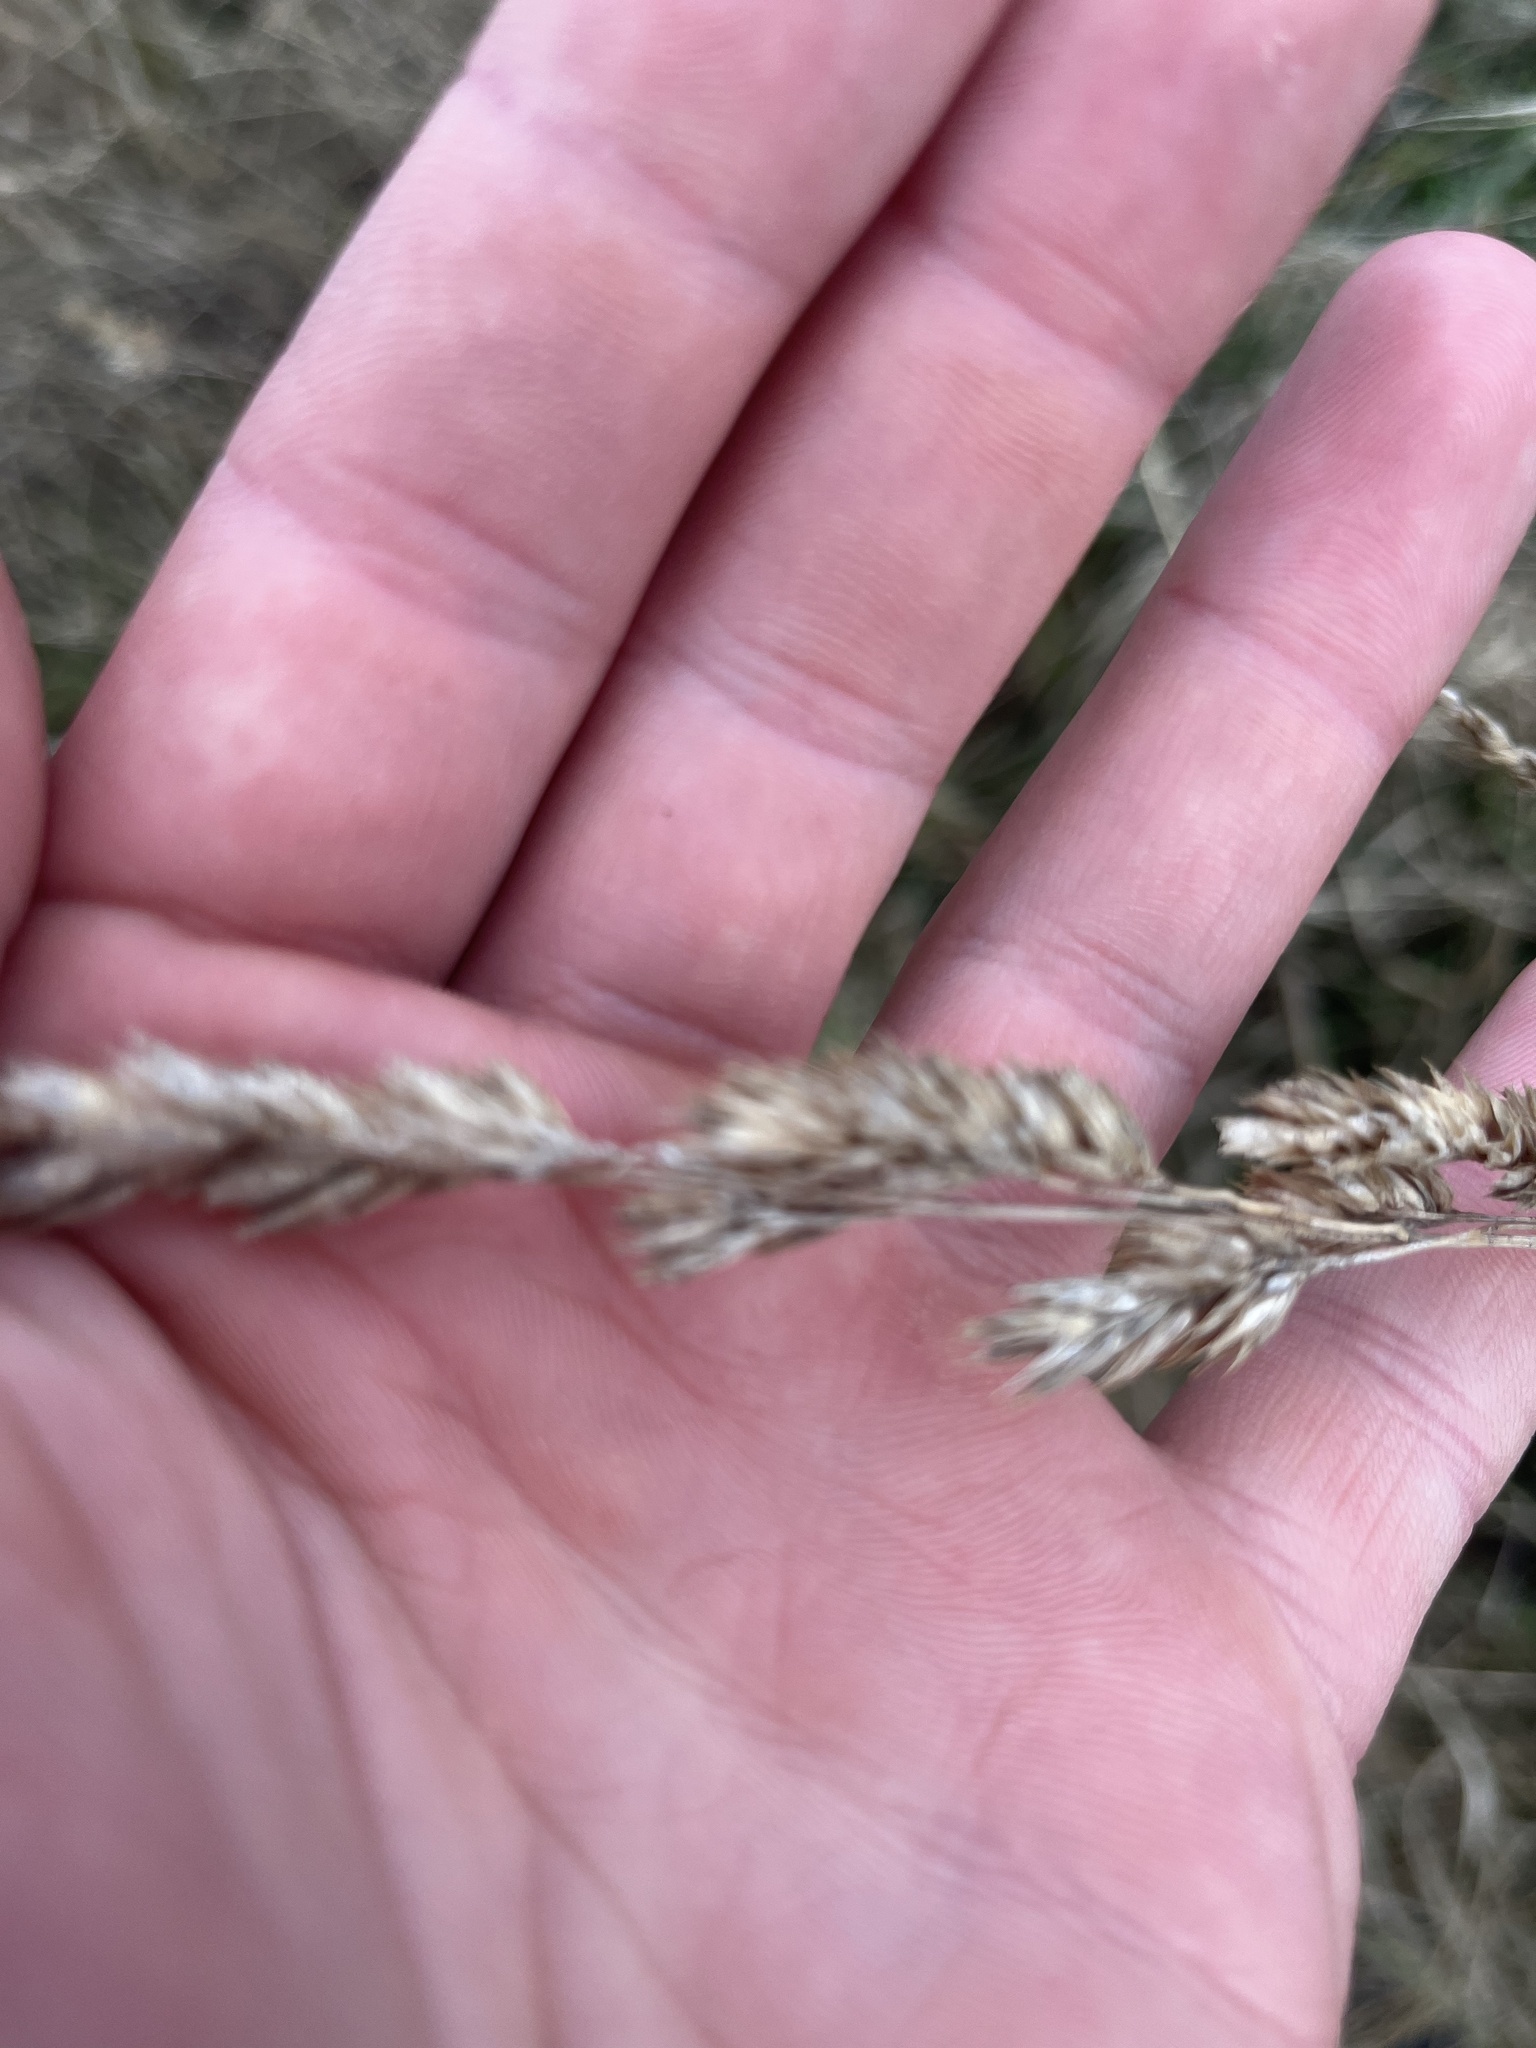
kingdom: Plantae
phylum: Tracheophyta
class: Liliopsida
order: Poales
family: Poaceae
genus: Dactylis
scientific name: Dactylis glomerata
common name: Orchardgrass
